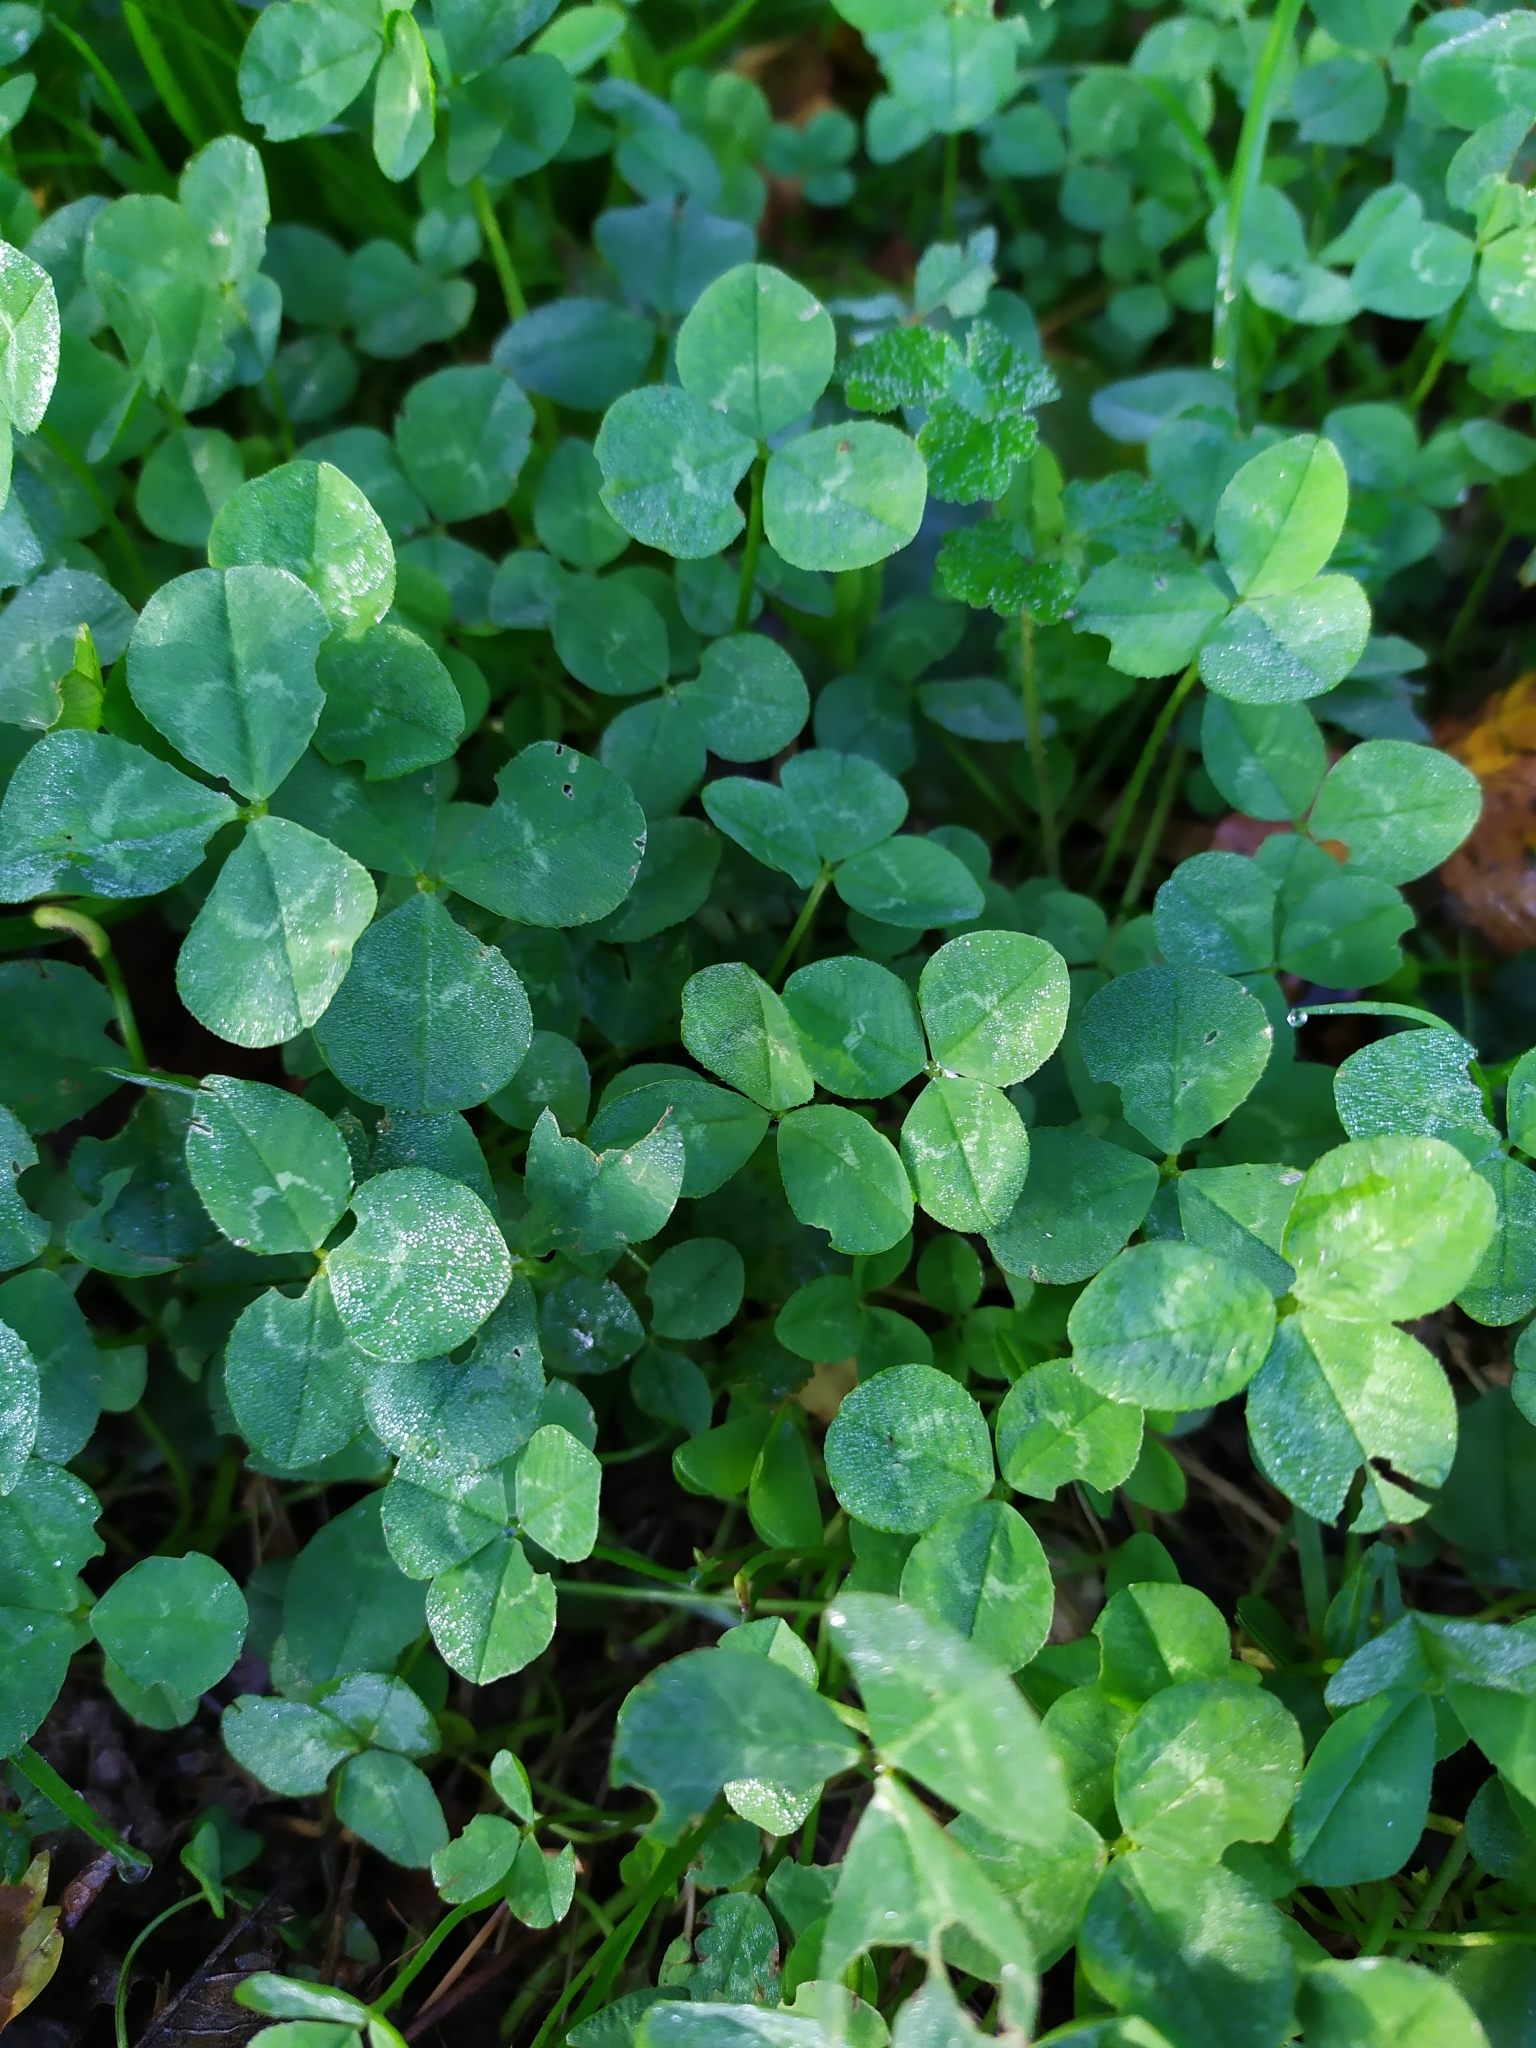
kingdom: Plantae
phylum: Tracheophyta
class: Magnoliopsida
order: Fabales
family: Fabaceae
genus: Trifolium
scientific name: Trifolium repens
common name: White clover
